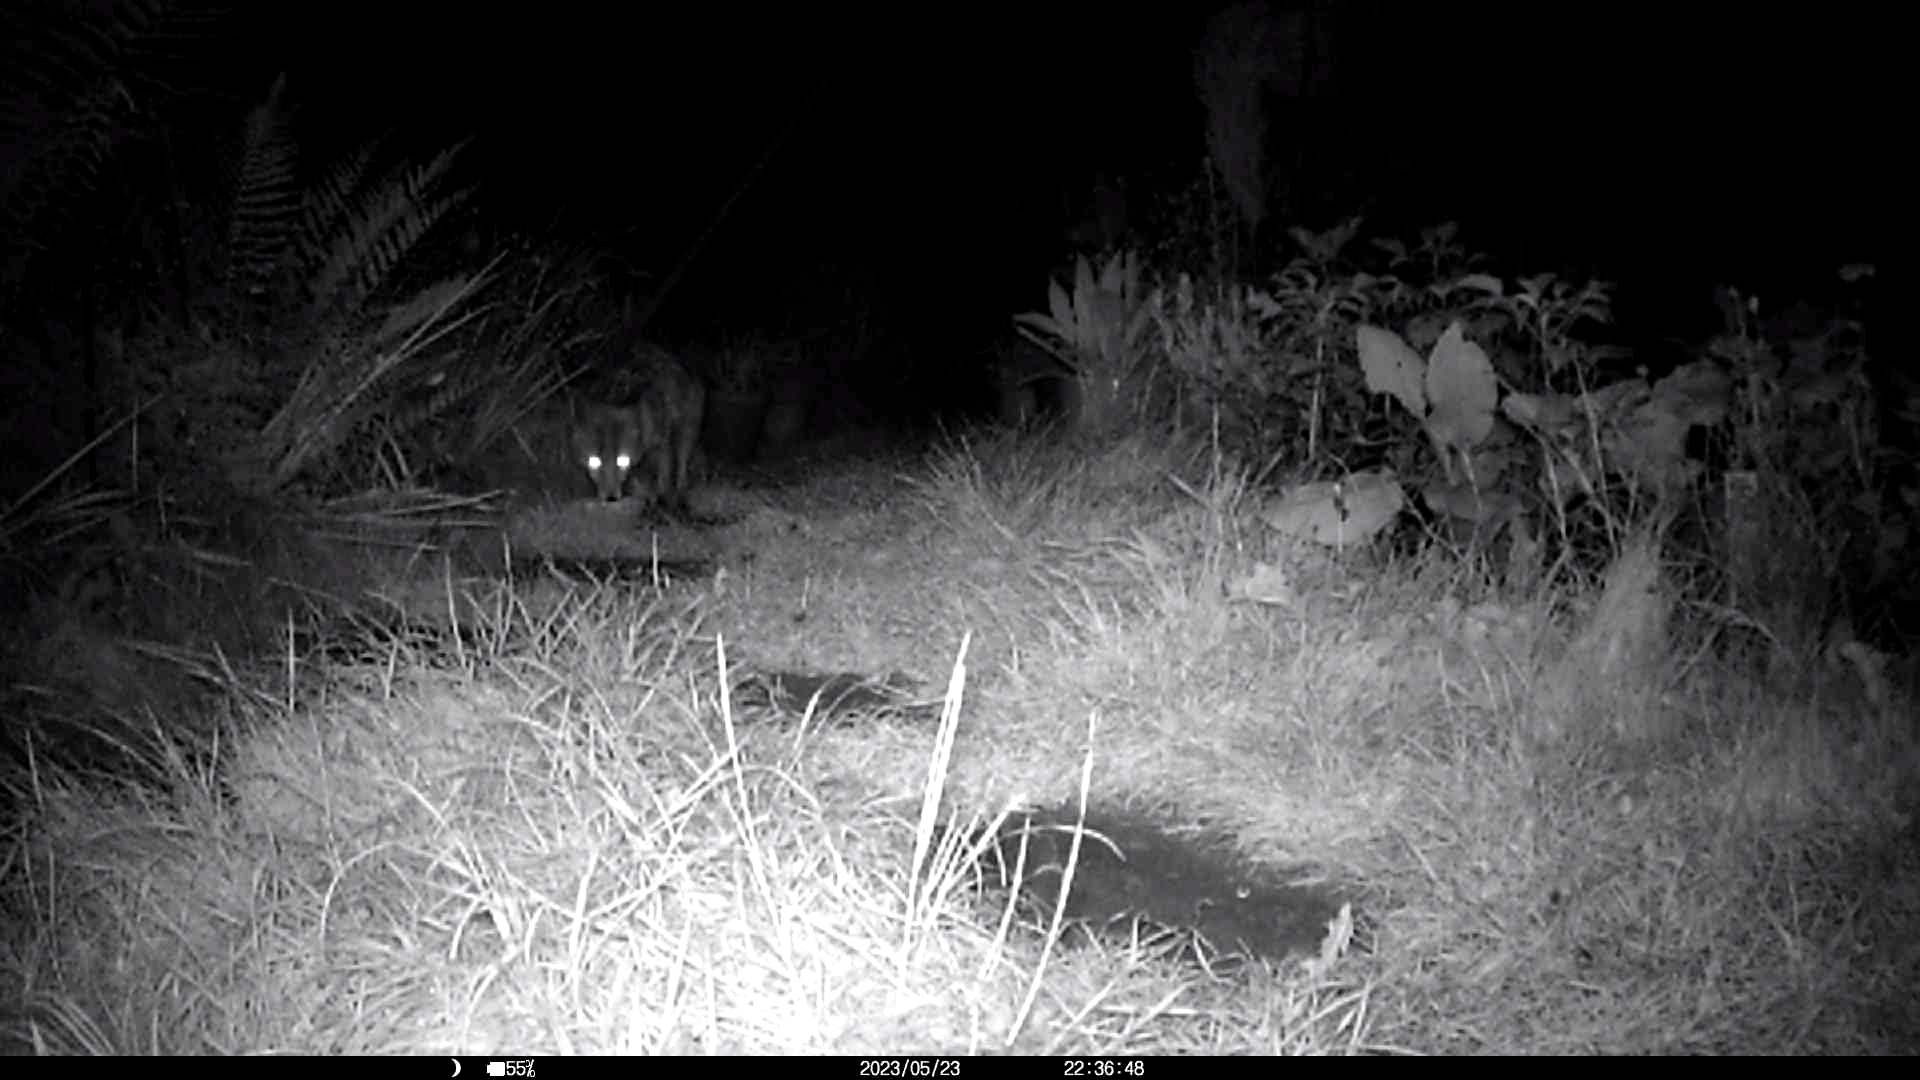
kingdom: Animalia
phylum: Chordata
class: Mammalia
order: Carnivora
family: Canidae
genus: Vulpes
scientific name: Vulpes vulpes
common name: Red fox
